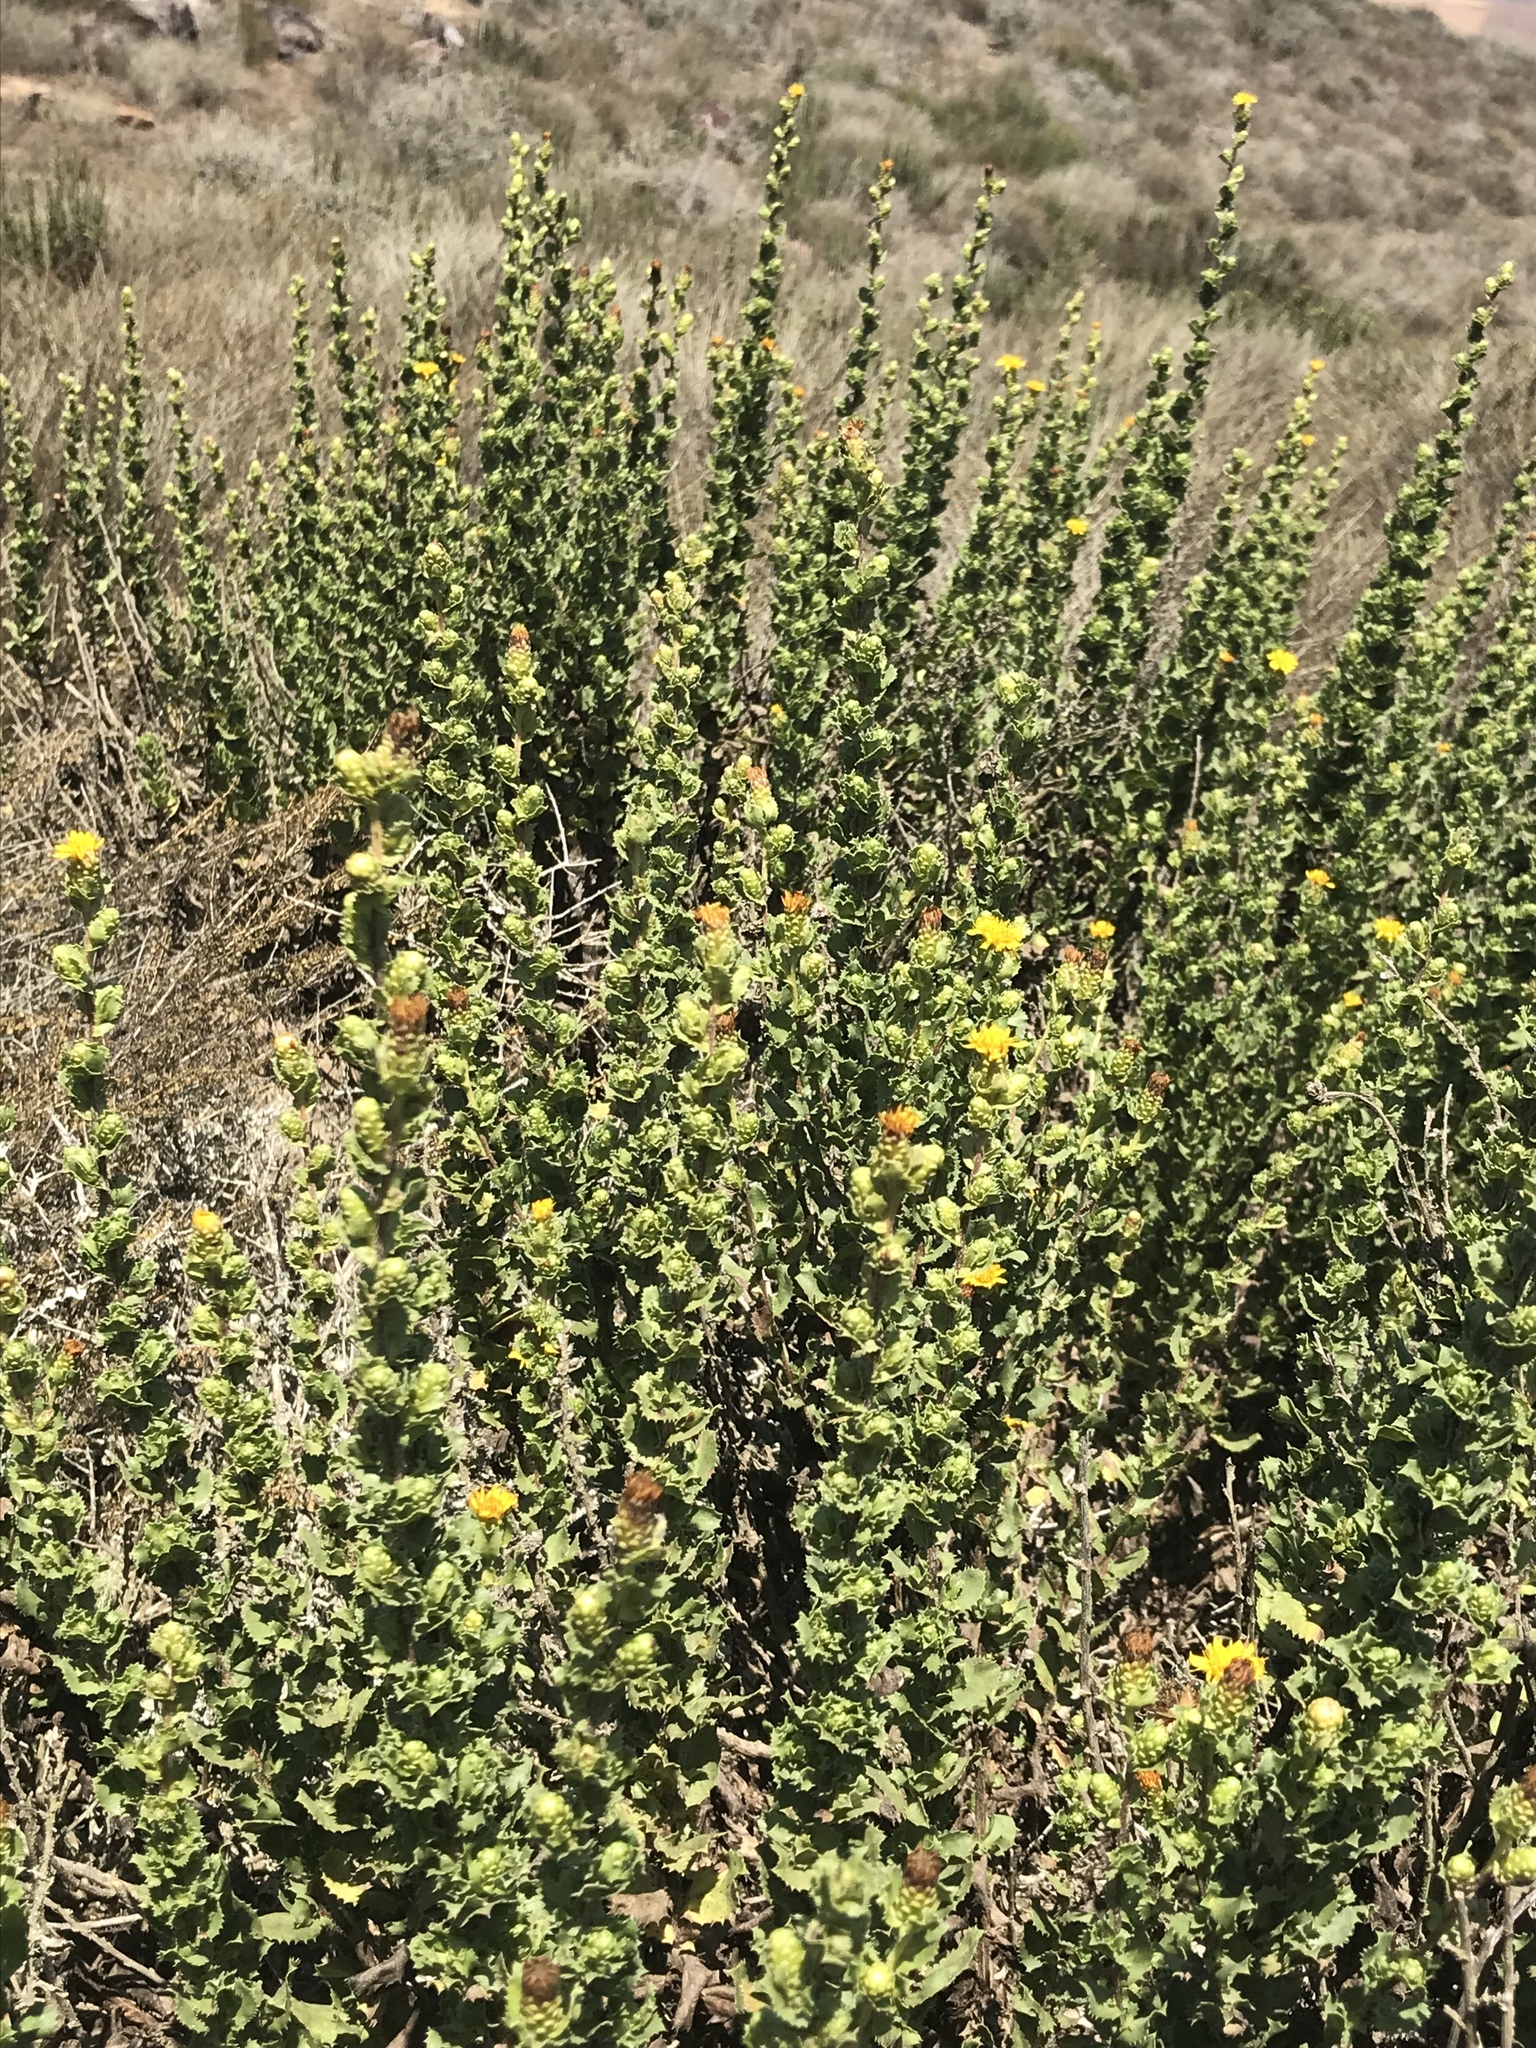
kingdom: Plantae
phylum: Tracheophyta
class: Magnoliopsida
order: Asterales
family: Asteraceae
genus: Hazardia
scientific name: Hazardia berberidis
